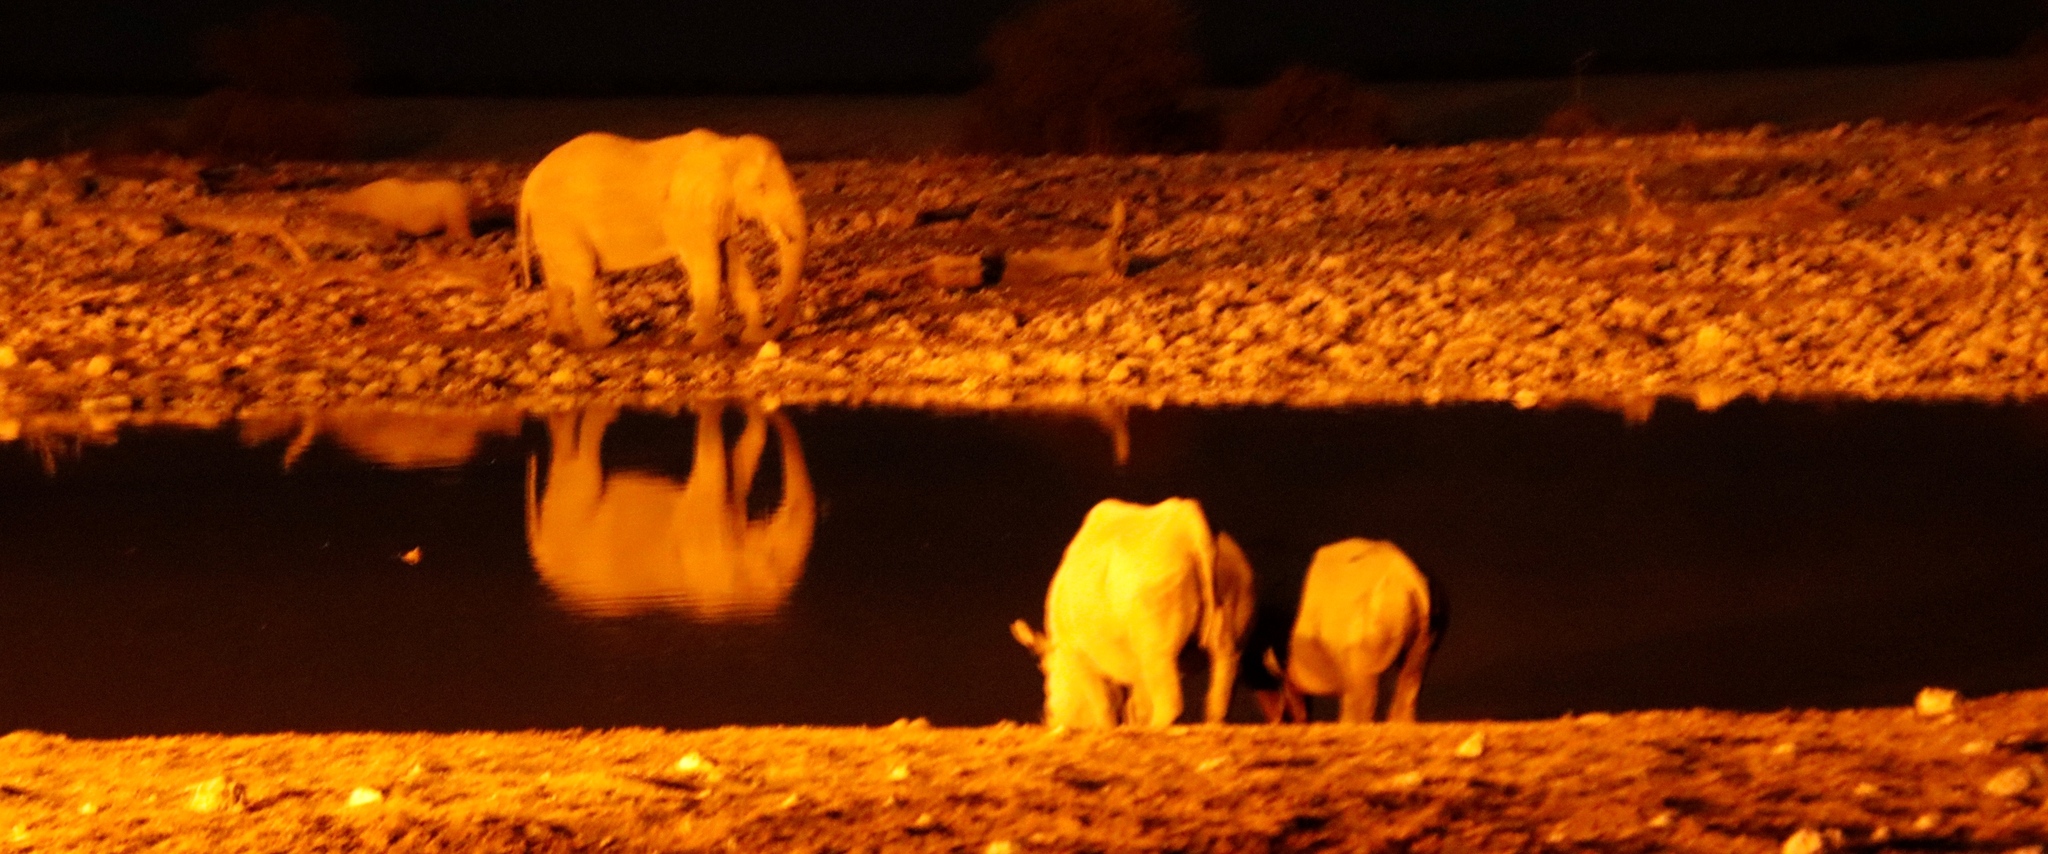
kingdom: Animalia
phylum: Chordata
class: Mammalia
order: Perissodactyla
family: Rhinocerotidae
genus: Diceros
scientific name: Diceros bicornis
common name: Black rhinoceros
